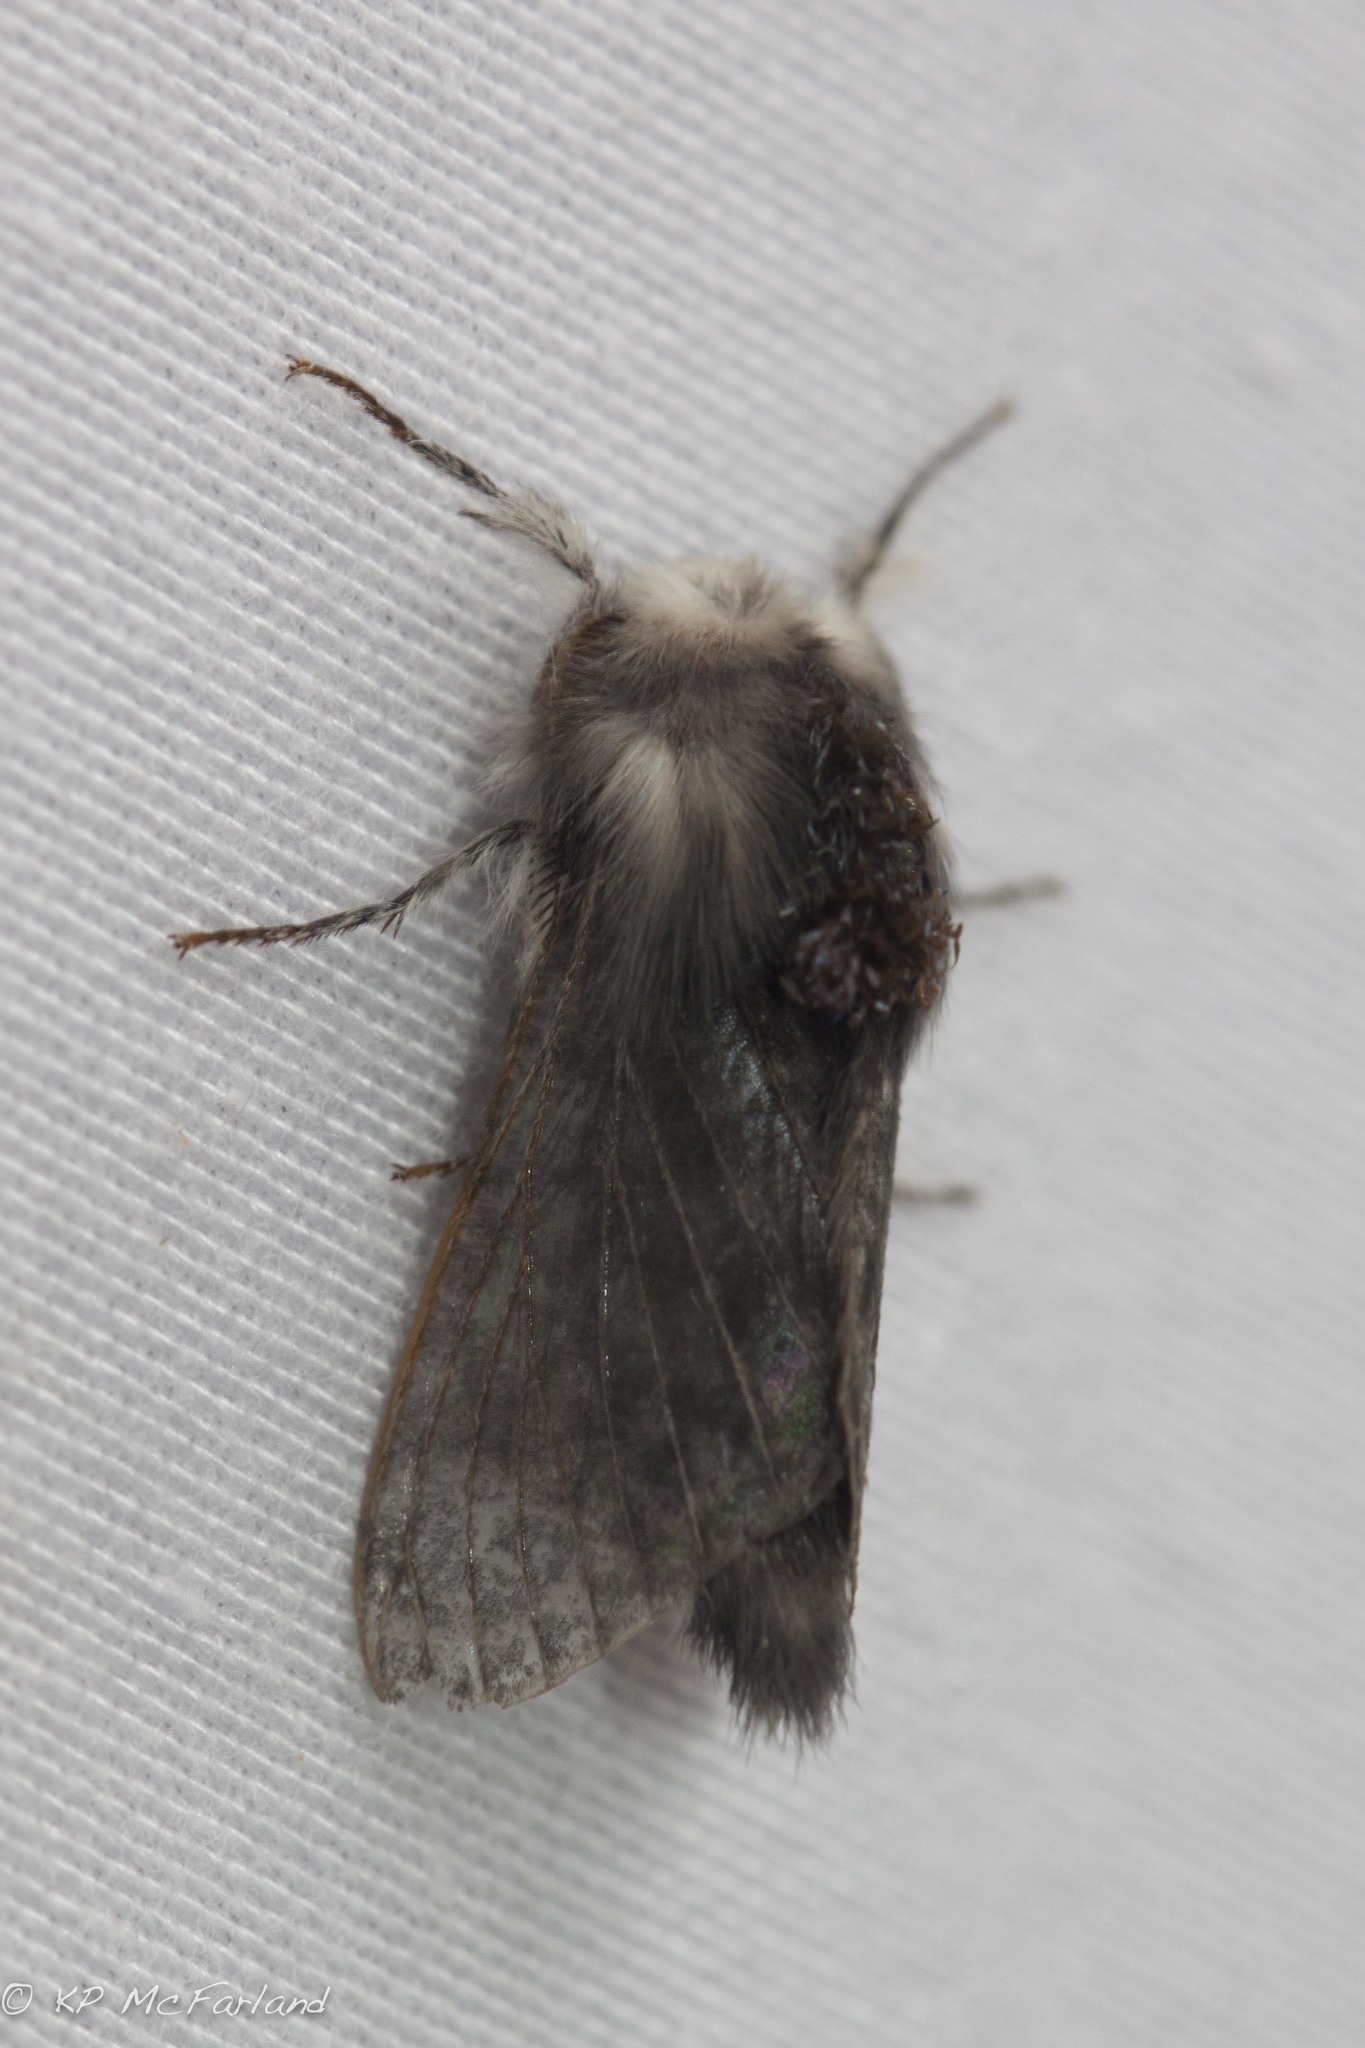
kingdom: Animalia
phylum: Arthropoda
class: Insecta
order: Lepidoptera
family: Lasiocampidae
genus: Tolype
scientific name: Tolype laricis
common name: Larch tolype moth
